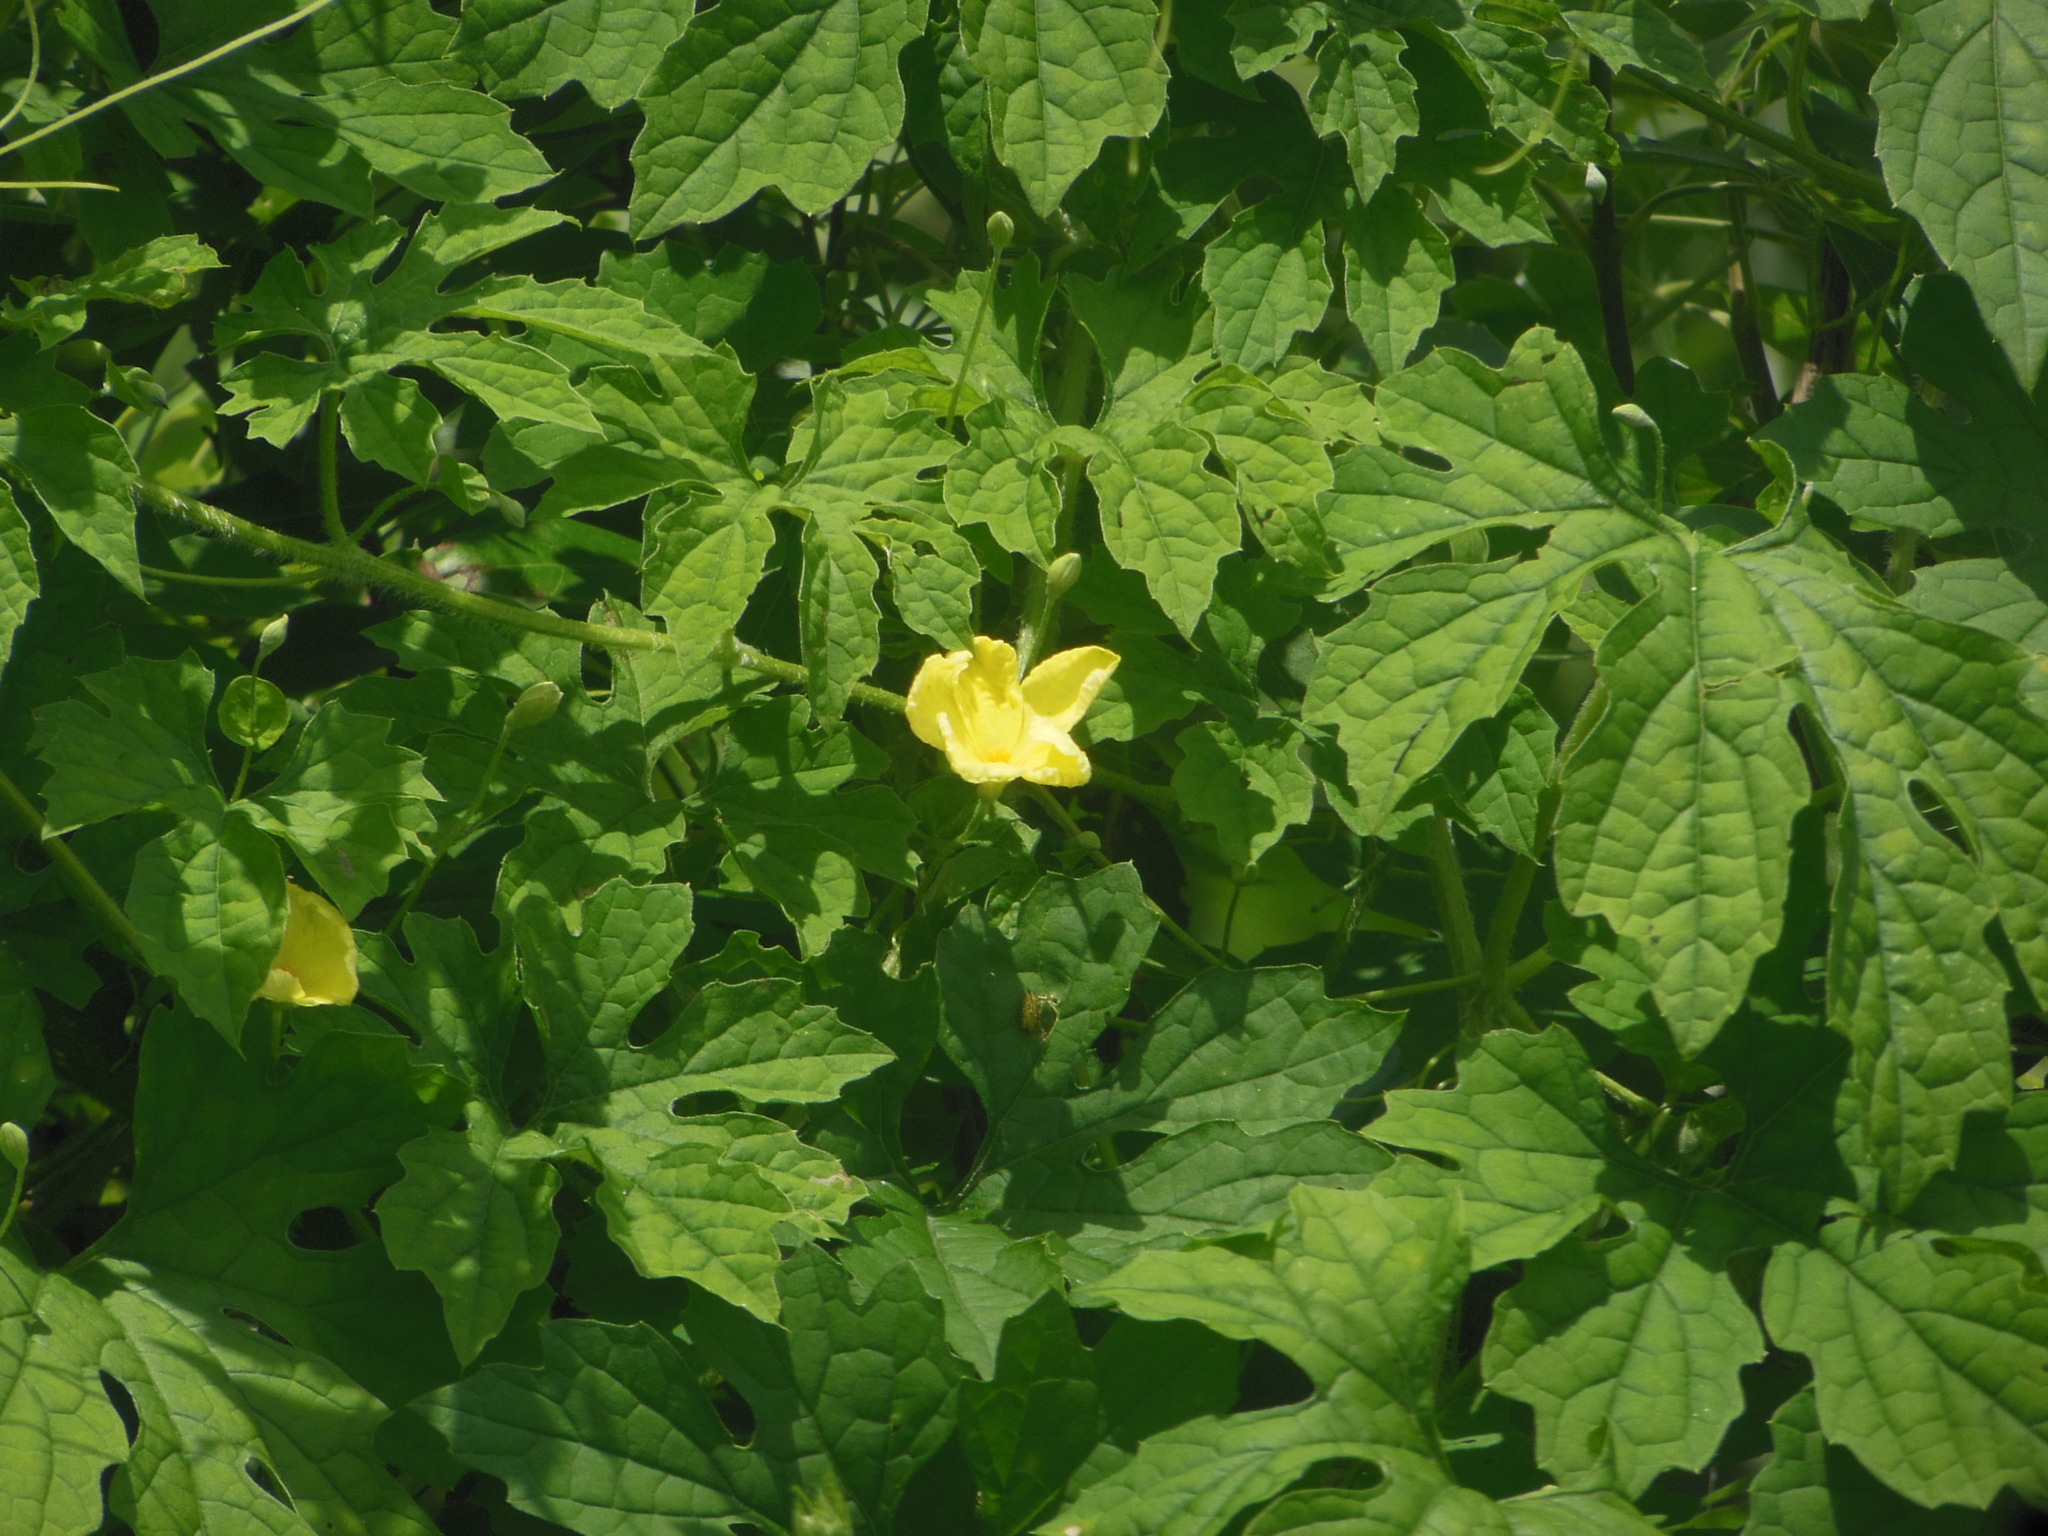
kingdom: Plantae
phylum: Tracheophyta
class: Magnoliopsida
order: Cucurbitales
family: Cucurbitaceae
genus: Momordica
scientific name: Momordica charantia
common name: Balsampear
